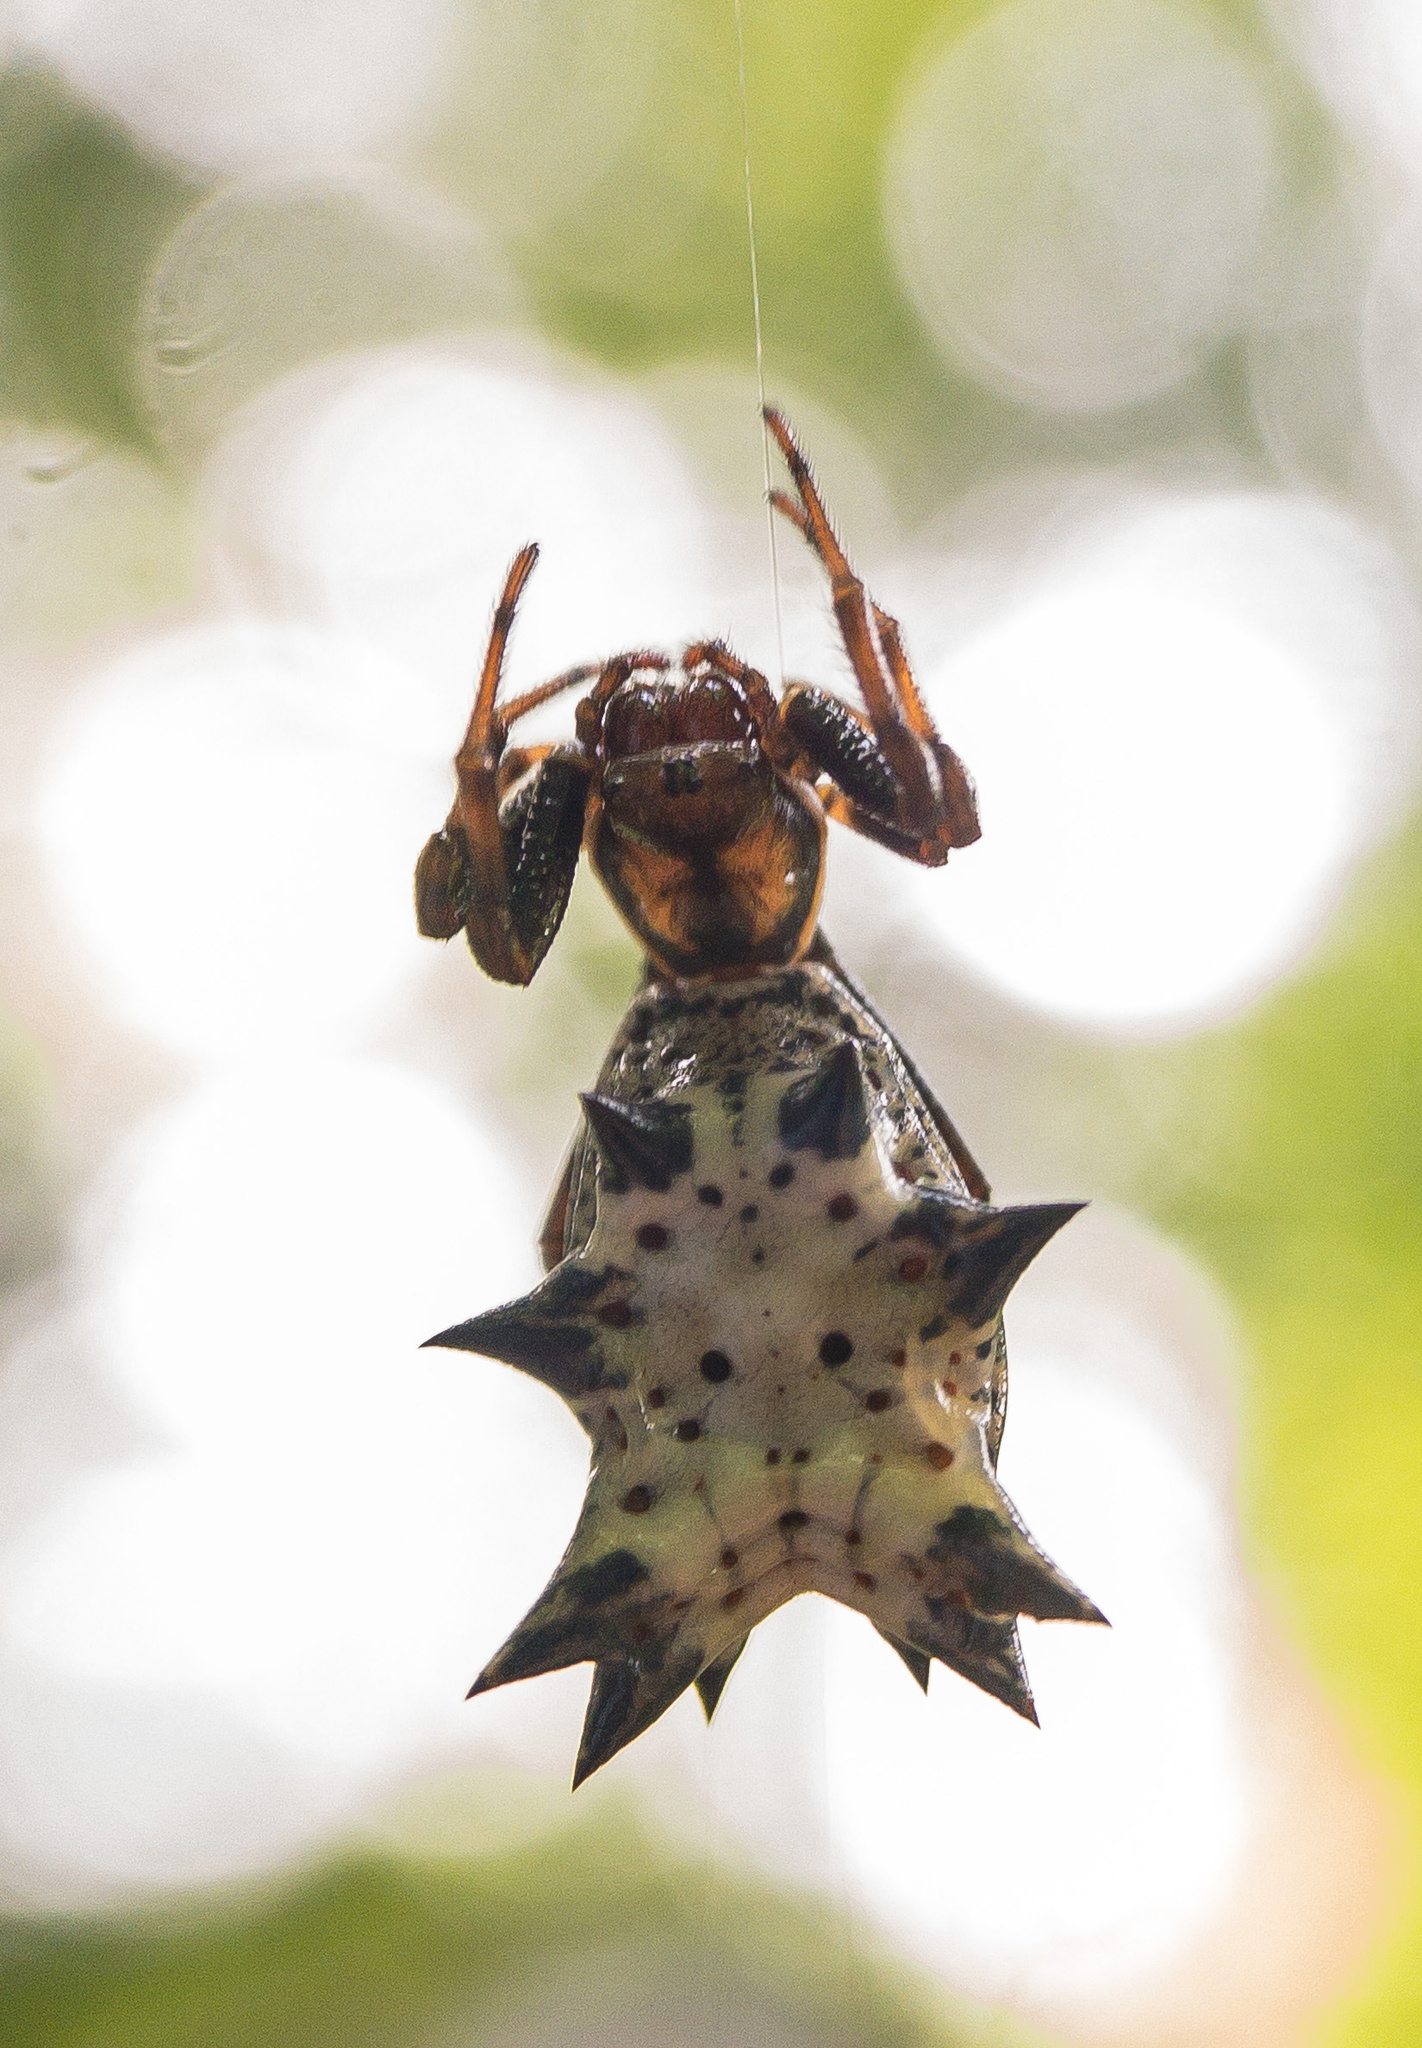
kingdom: Animalia
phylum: Arthropoda
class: Arachnida
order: Araneae
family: Araneidae
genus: Micrathena
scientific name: Micrathena gracilis
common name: Orb weavers
